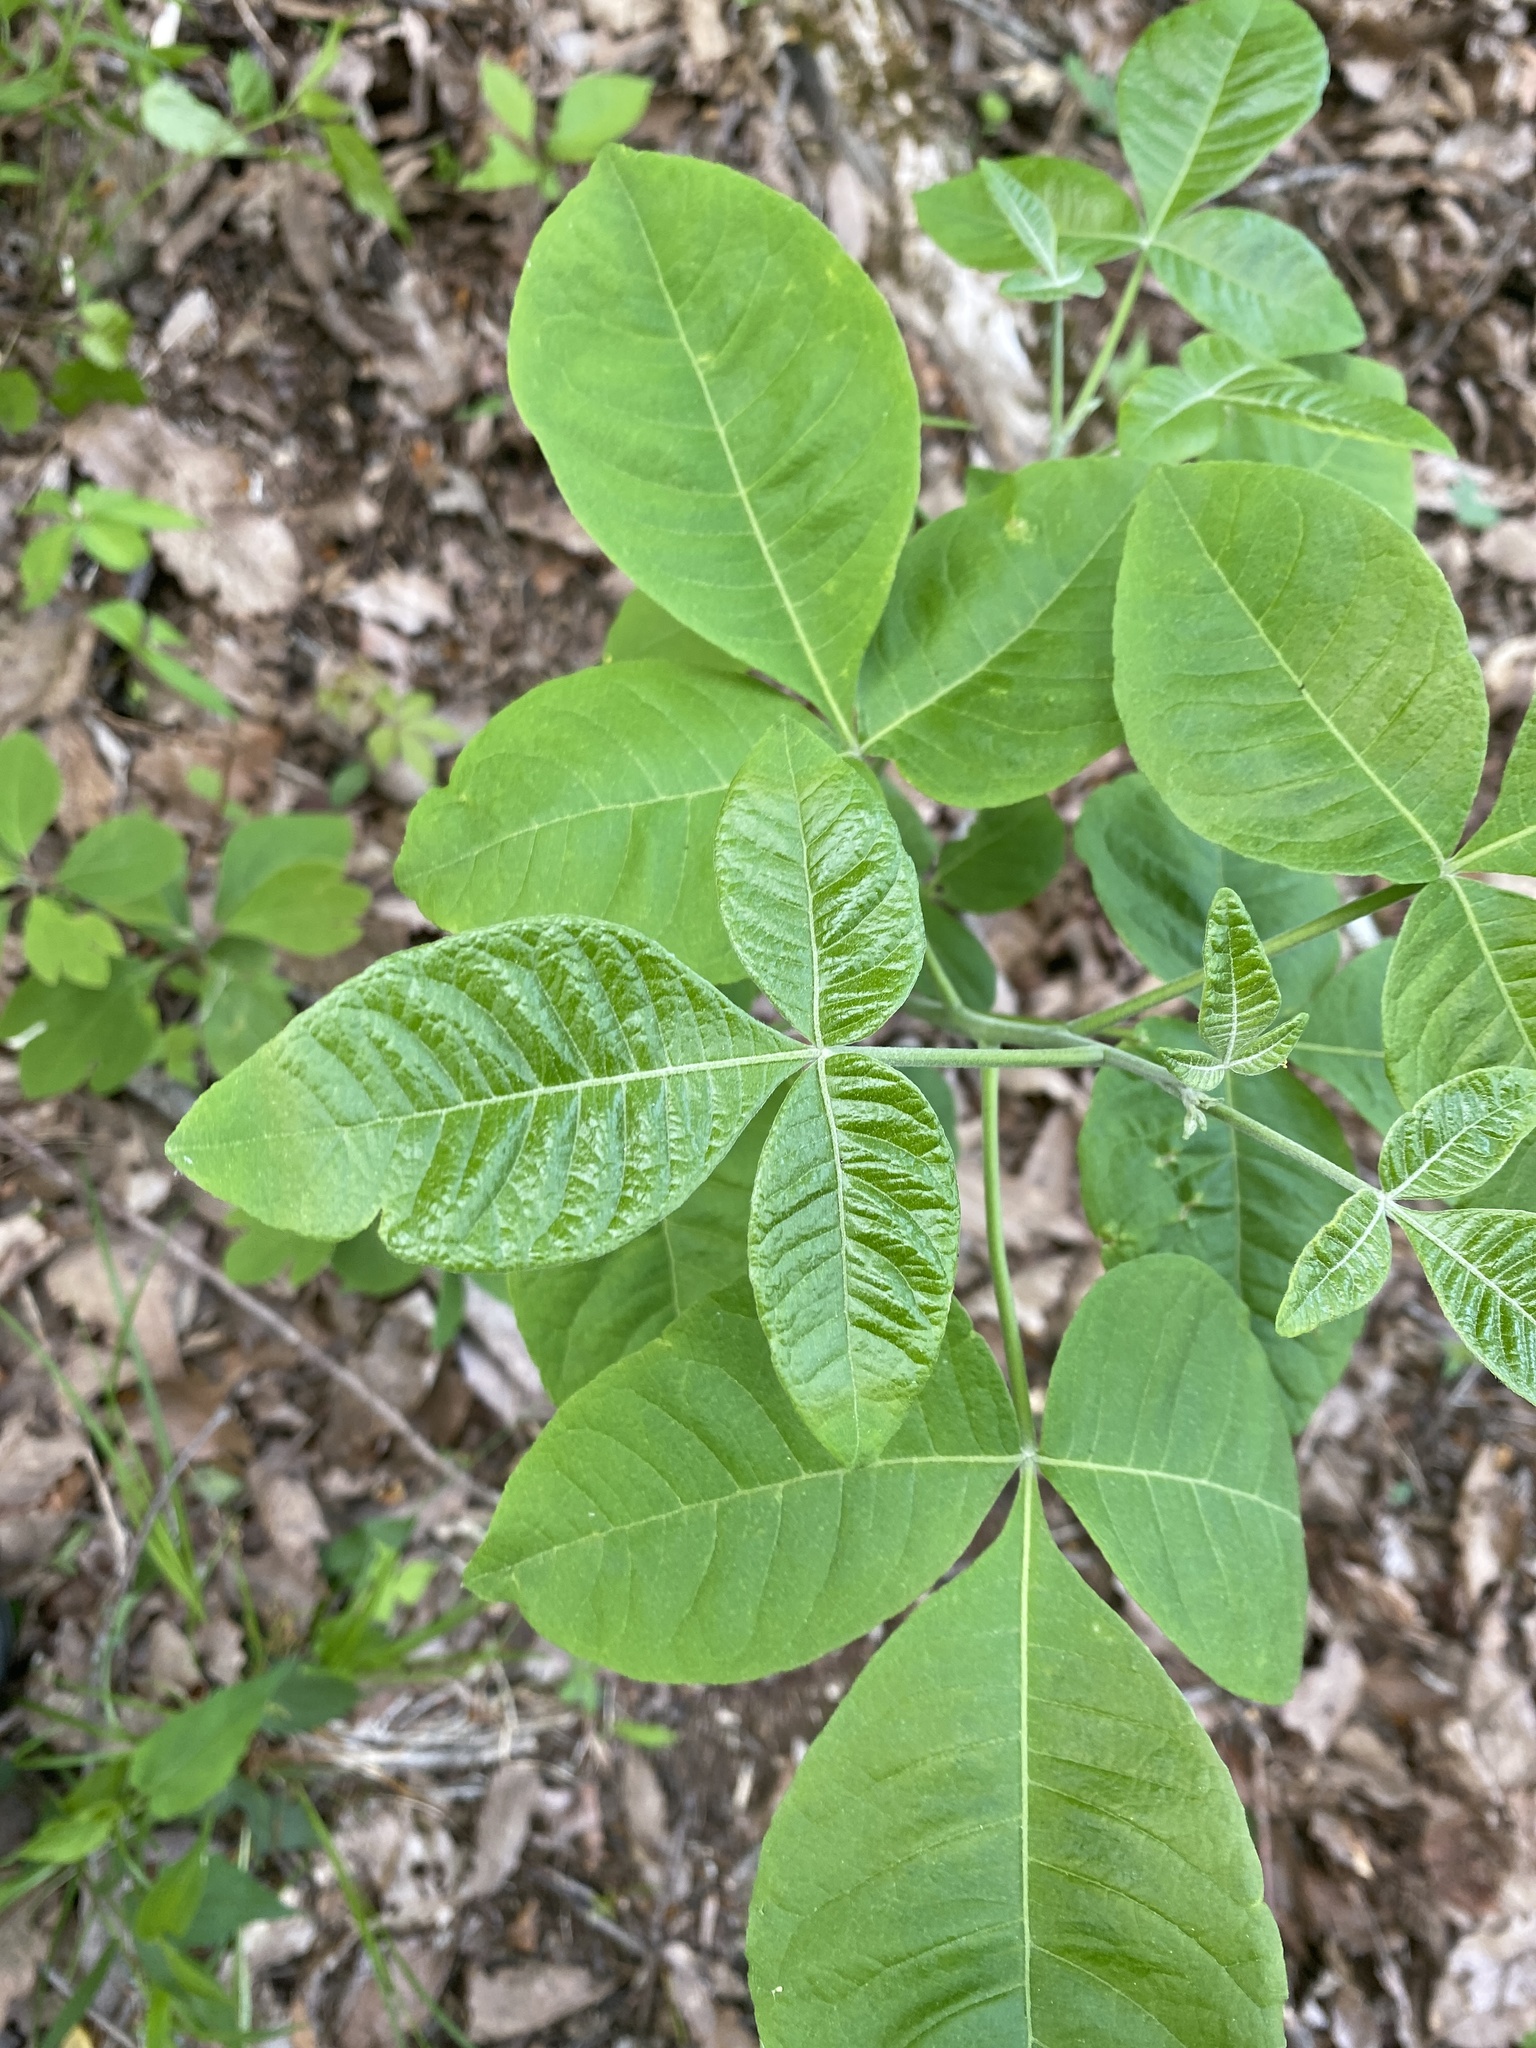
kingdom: Plantae
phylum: Tracheophyta
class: Magnoliopsida
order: Sapindales
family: Rutaceae
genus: Ptelea
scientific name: Ptelea trifoliata
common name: Common hop-tree
